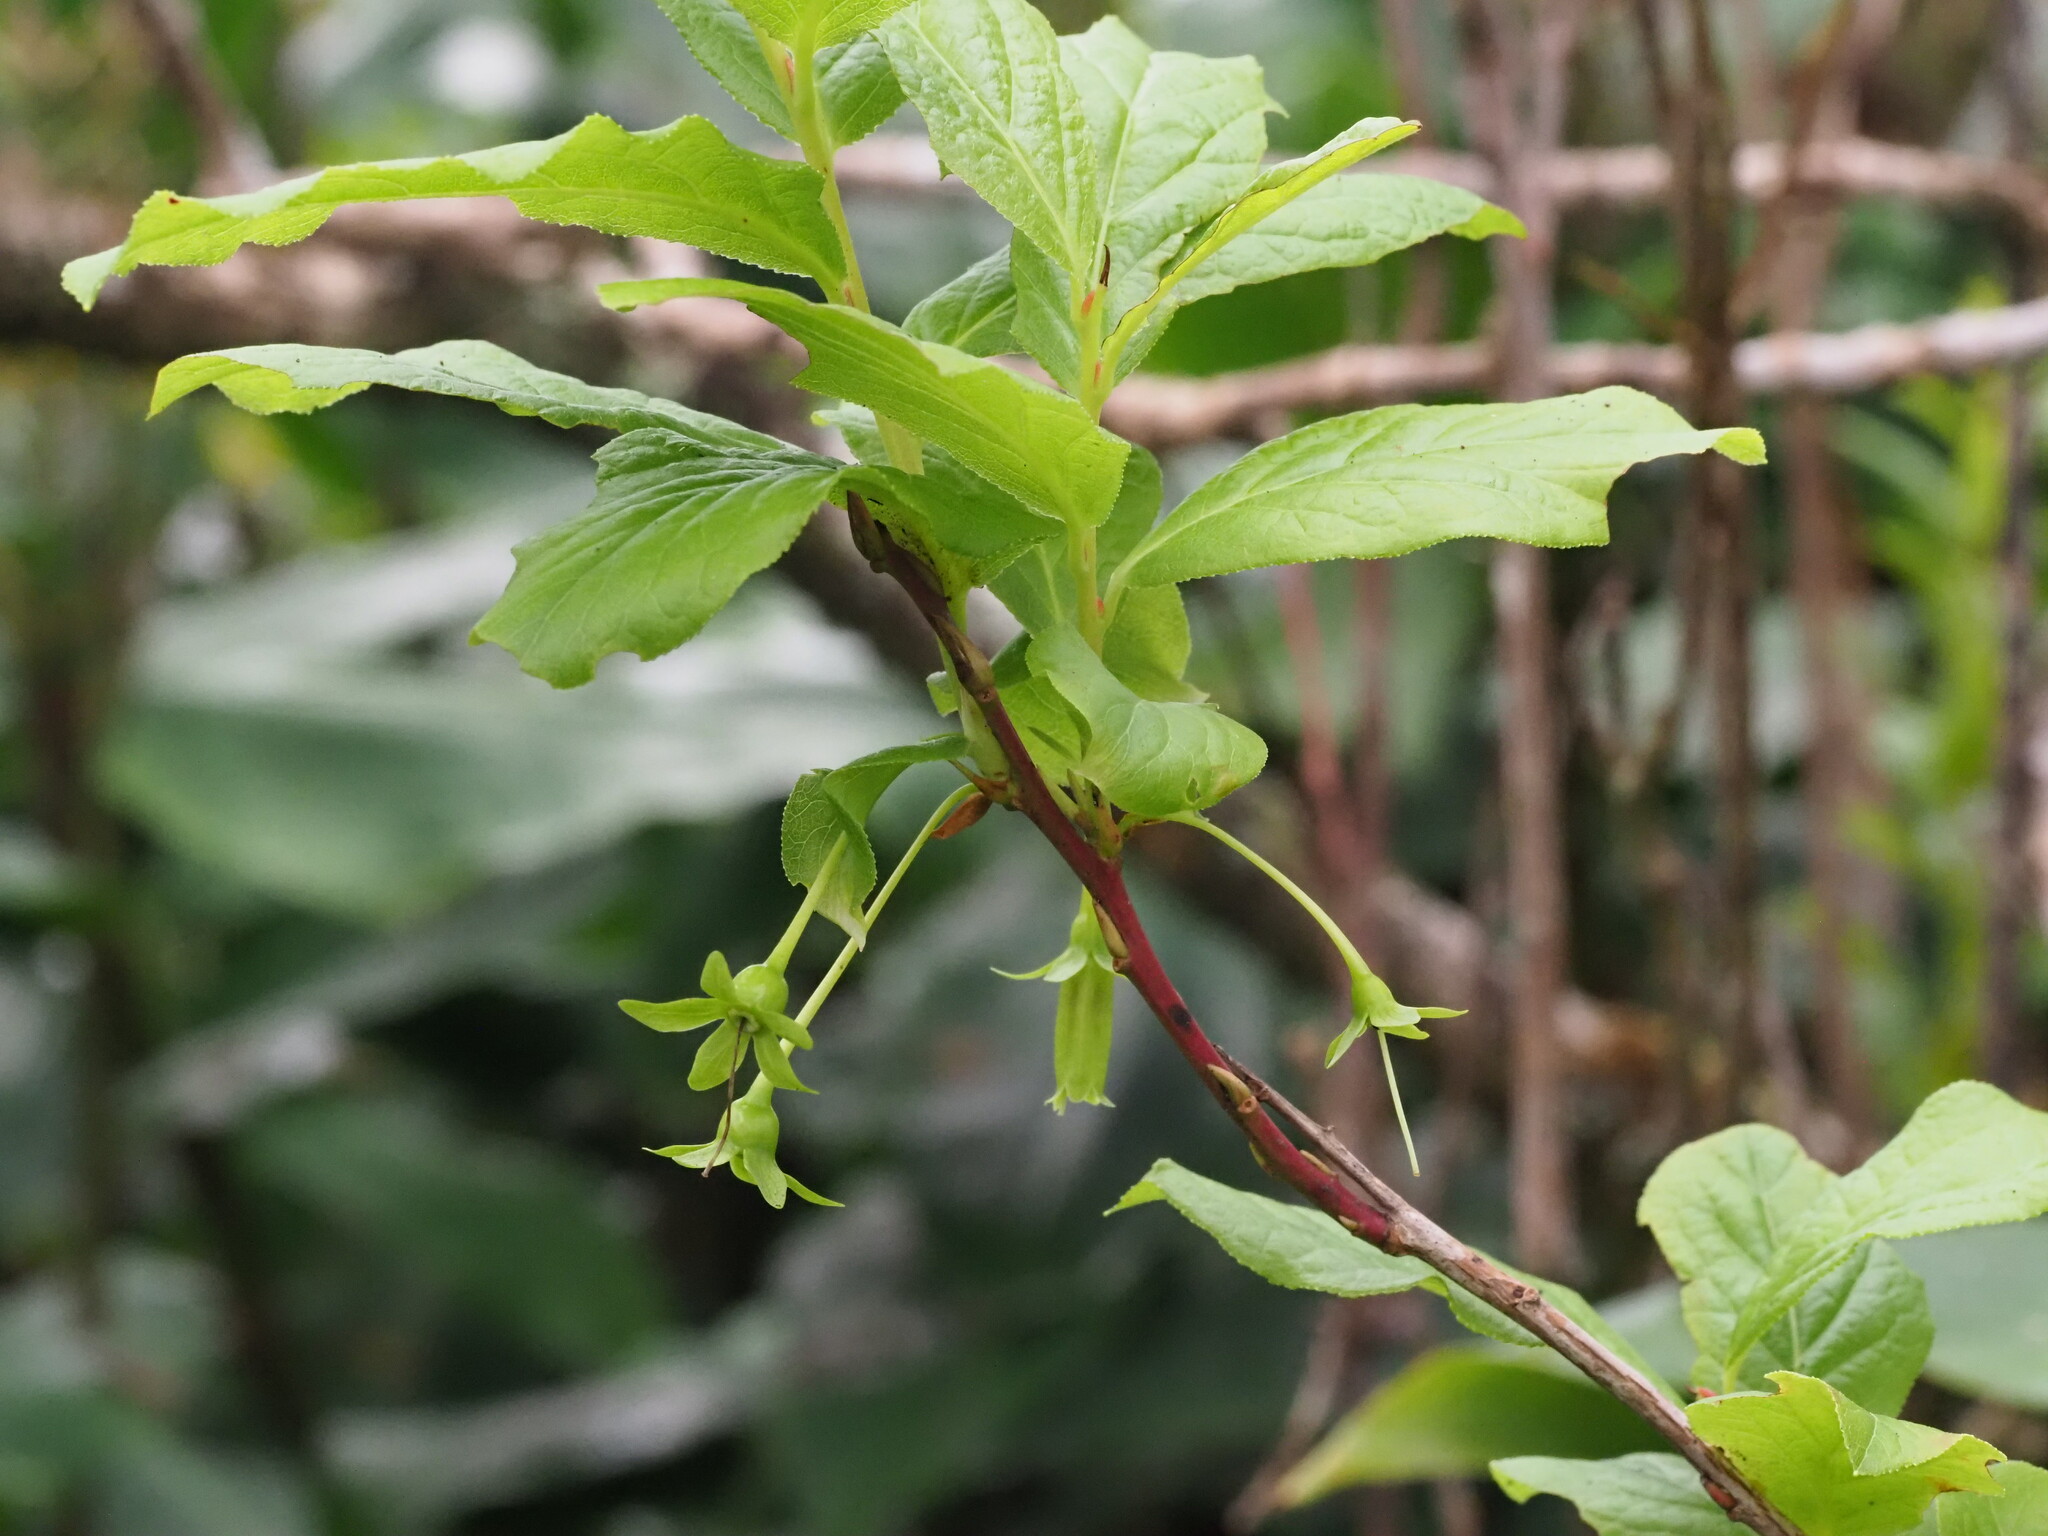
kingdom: Plantae
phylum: Tracheophyta
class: Magnoliopsida
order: Ericales
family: Ericaceae
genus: Vaccinium
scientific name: Vaccinium calycinum
